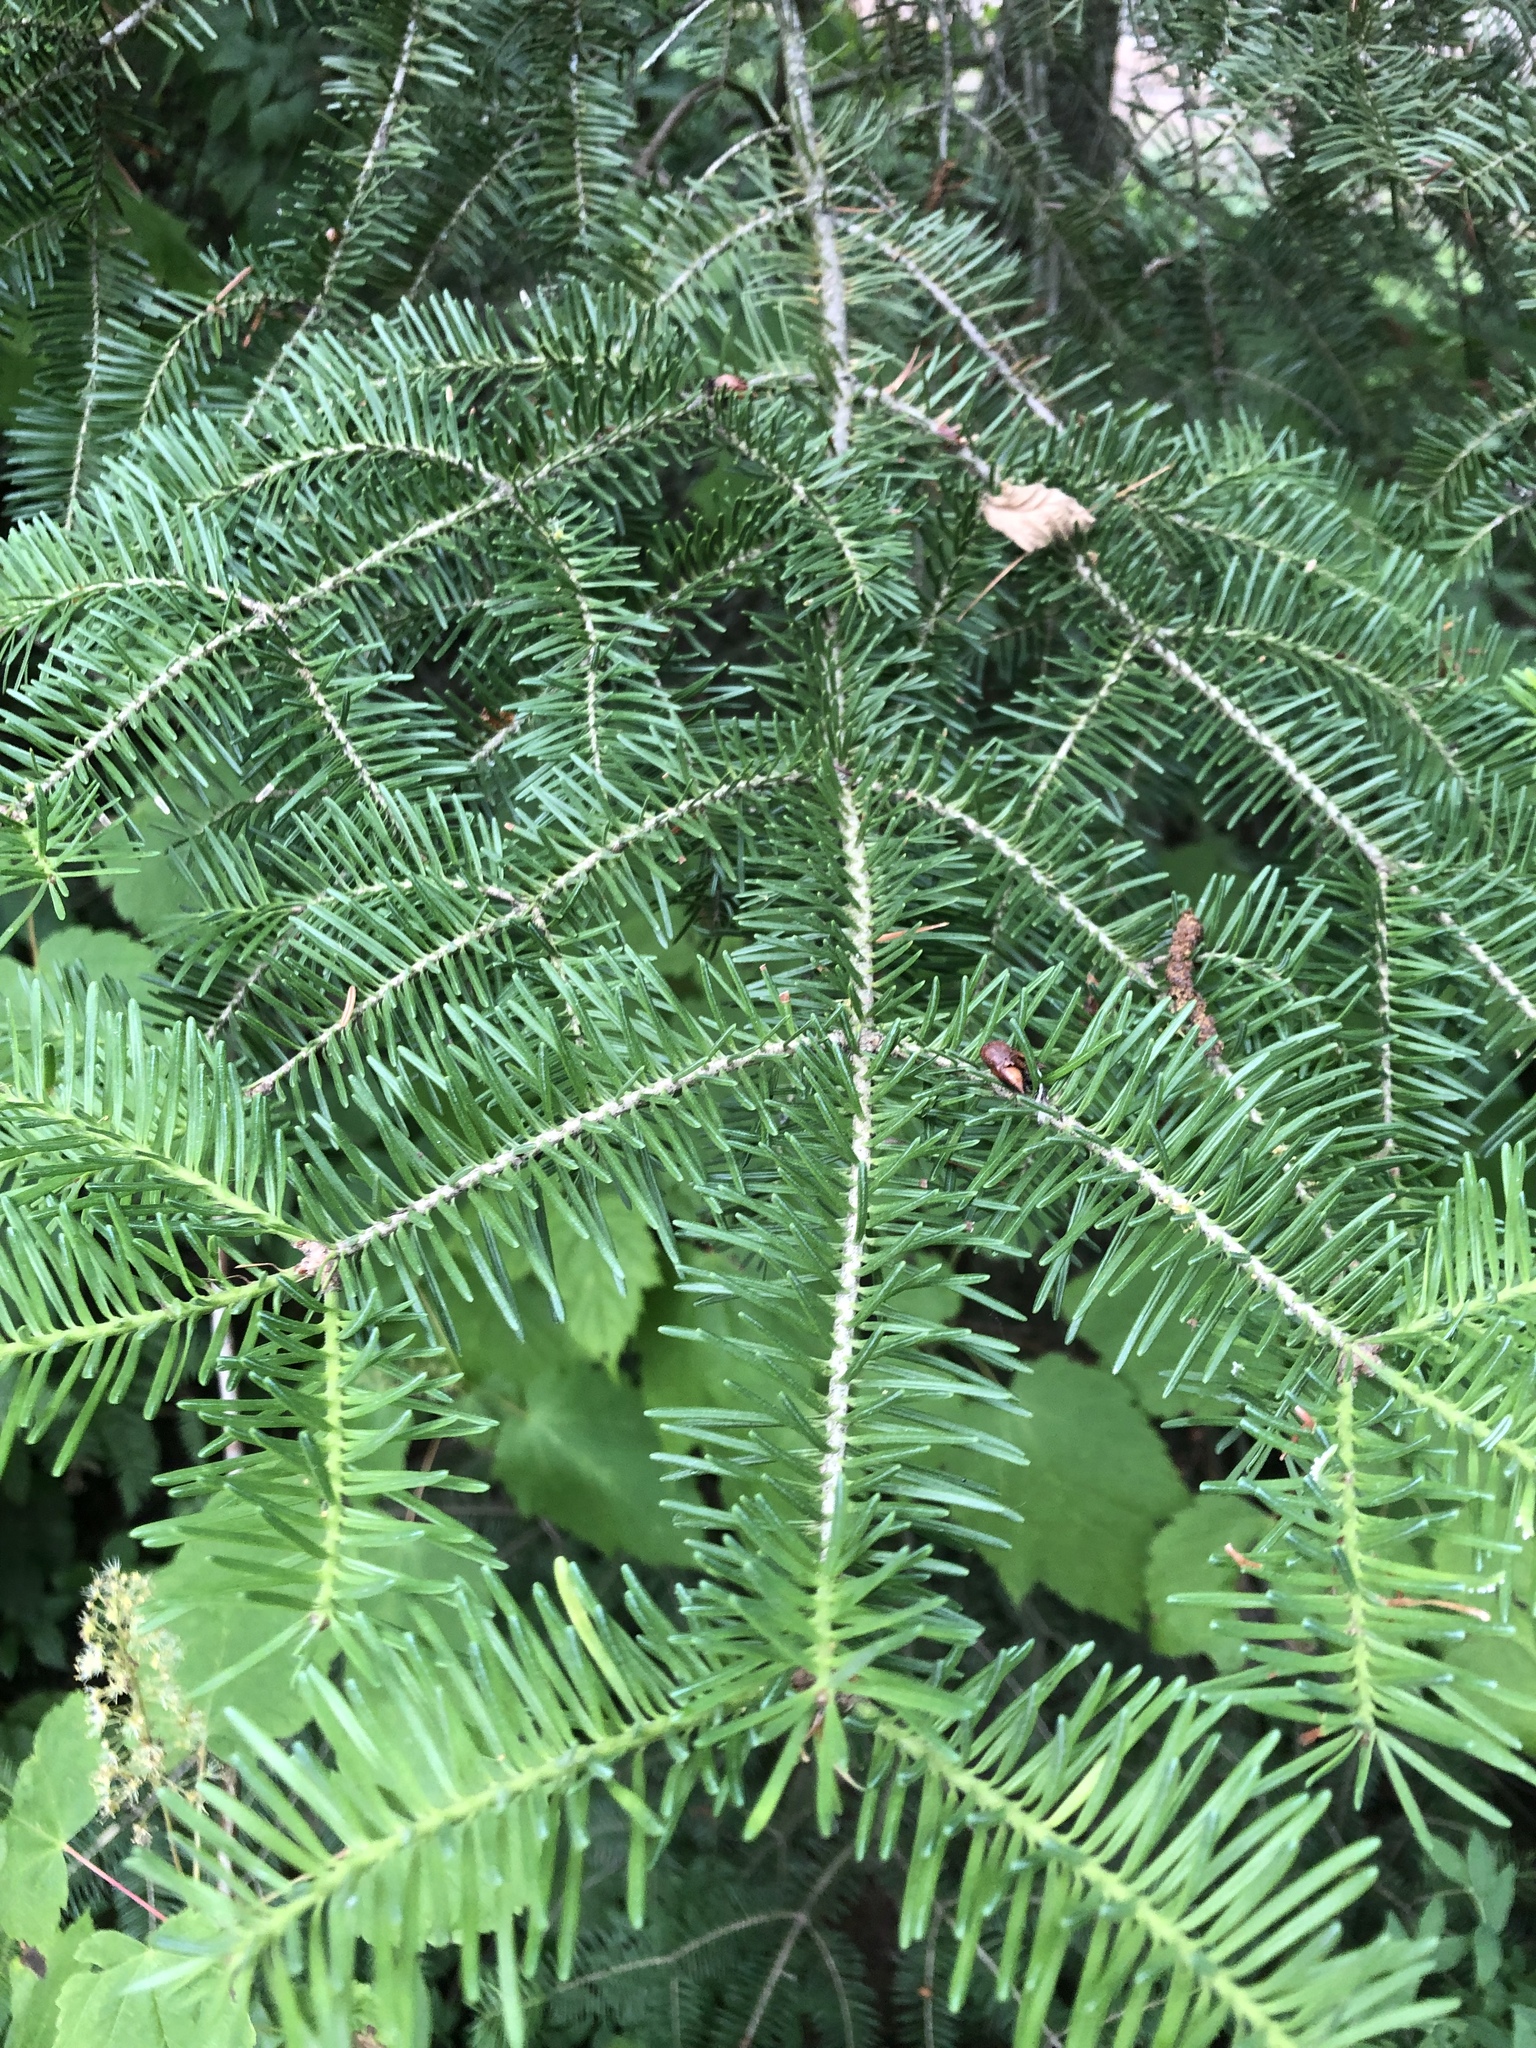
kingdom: Plantae
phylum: Tracheophyta
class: Pinopsida
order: Pinales
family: Pinaceae
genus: Abies
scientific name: Abies balsamea
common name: Balsam fir
